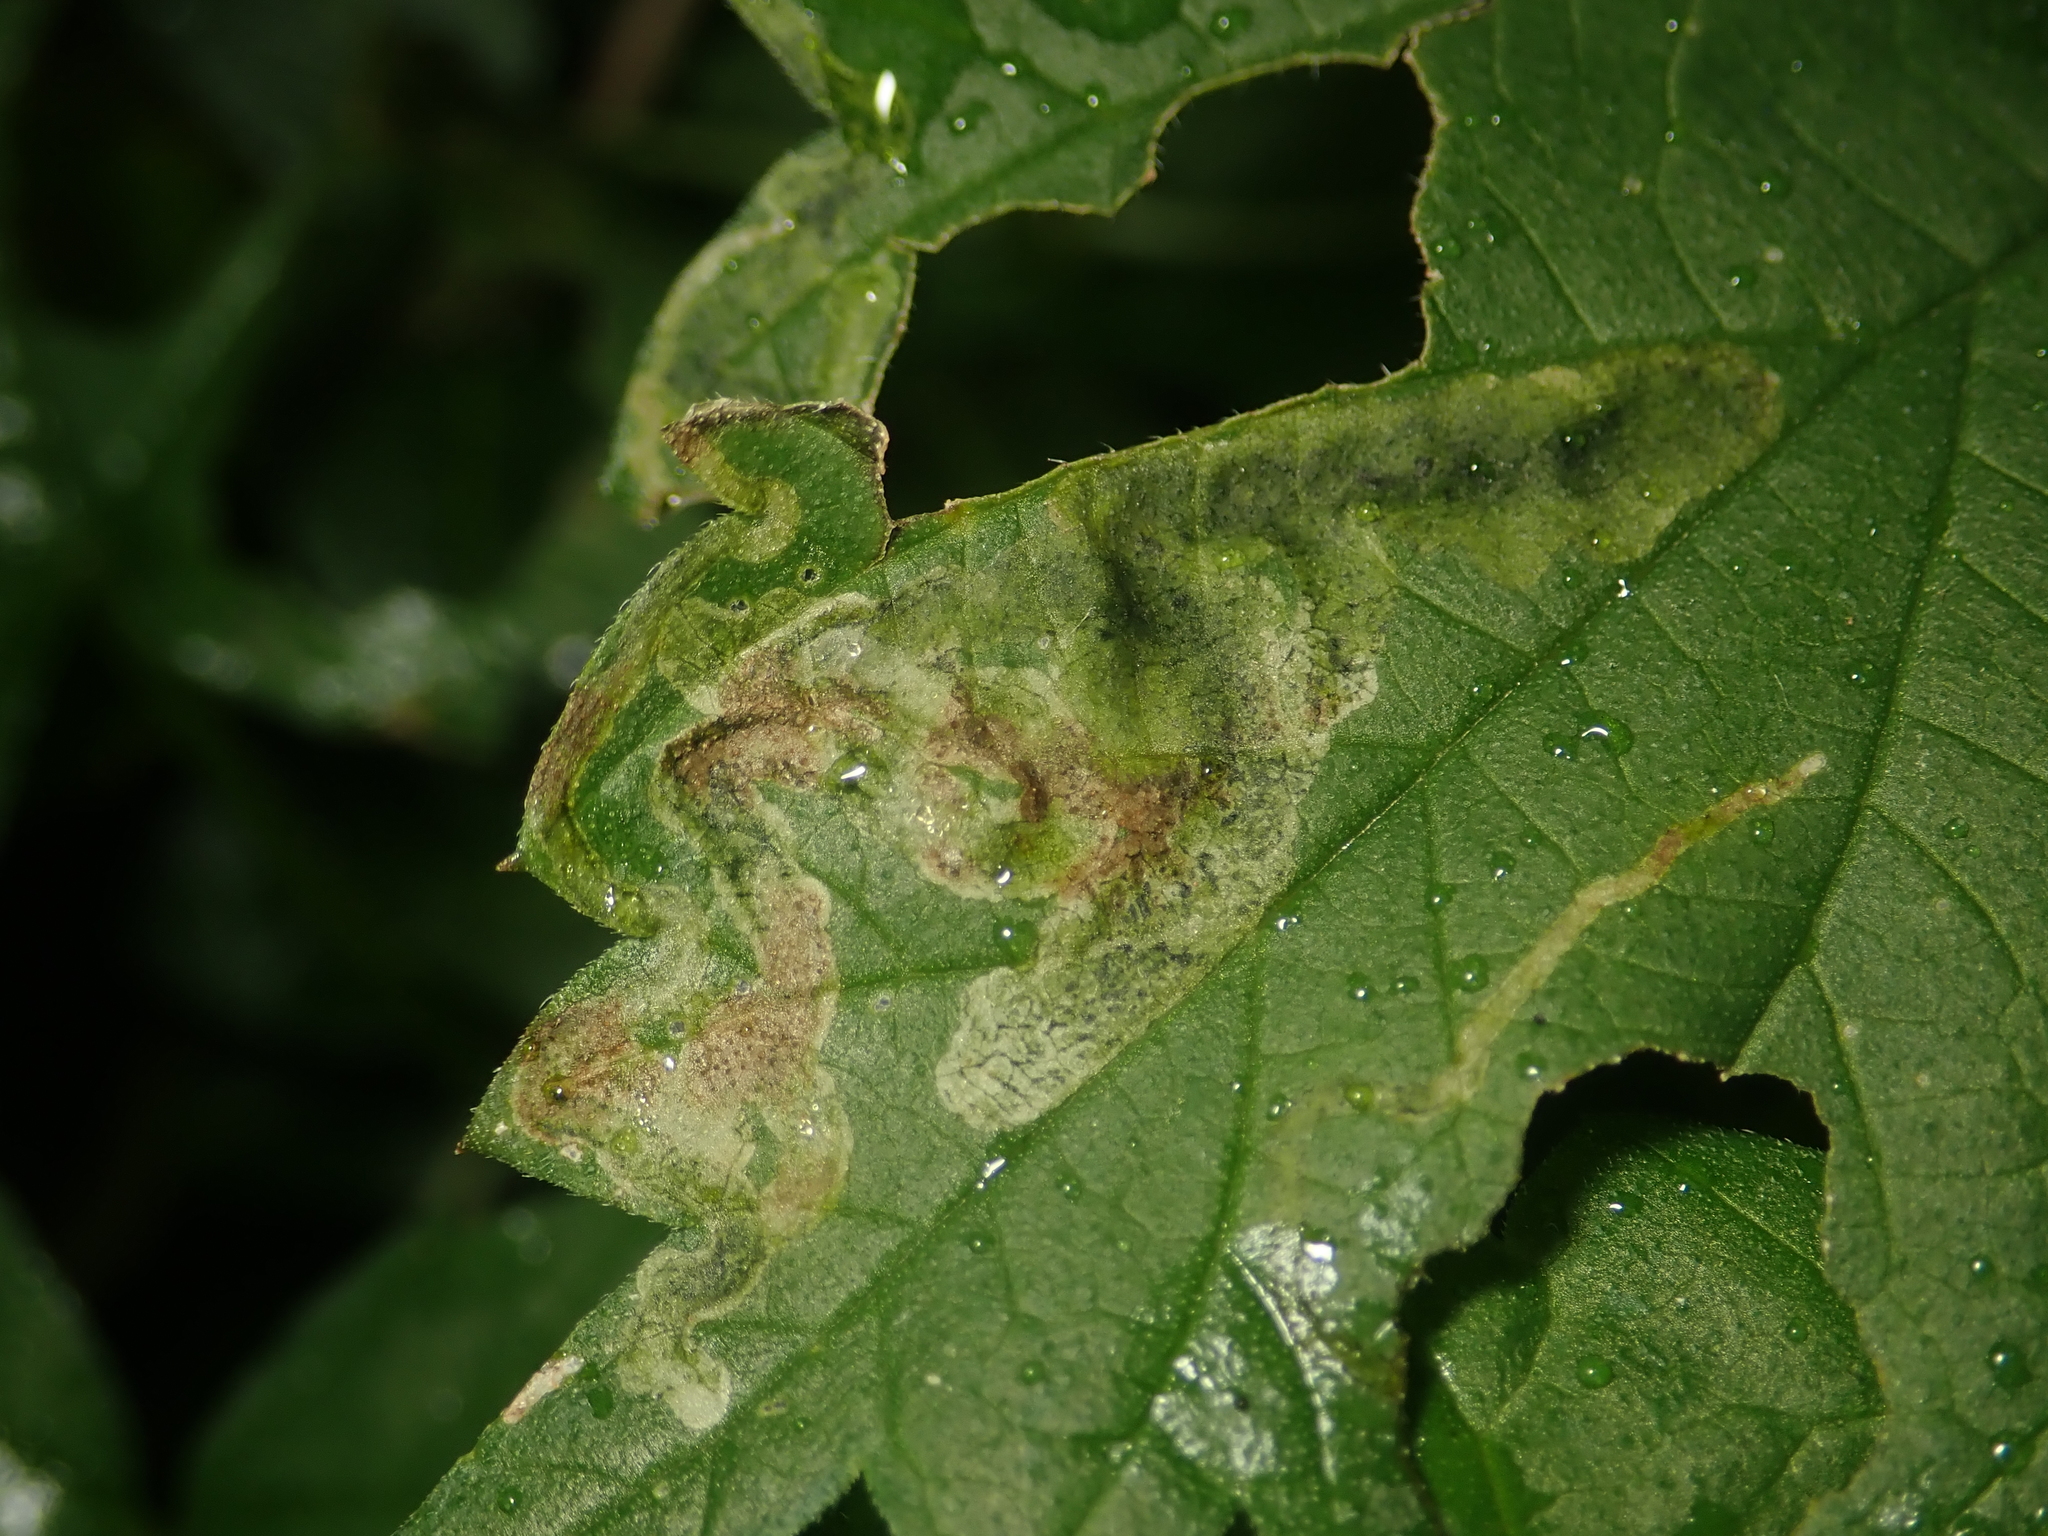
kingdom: Animalia
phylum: Arthropoda
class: Insecta
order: Diptera
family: Agromyzidae
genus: Agromyza
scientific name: Agromyza flaviceps
